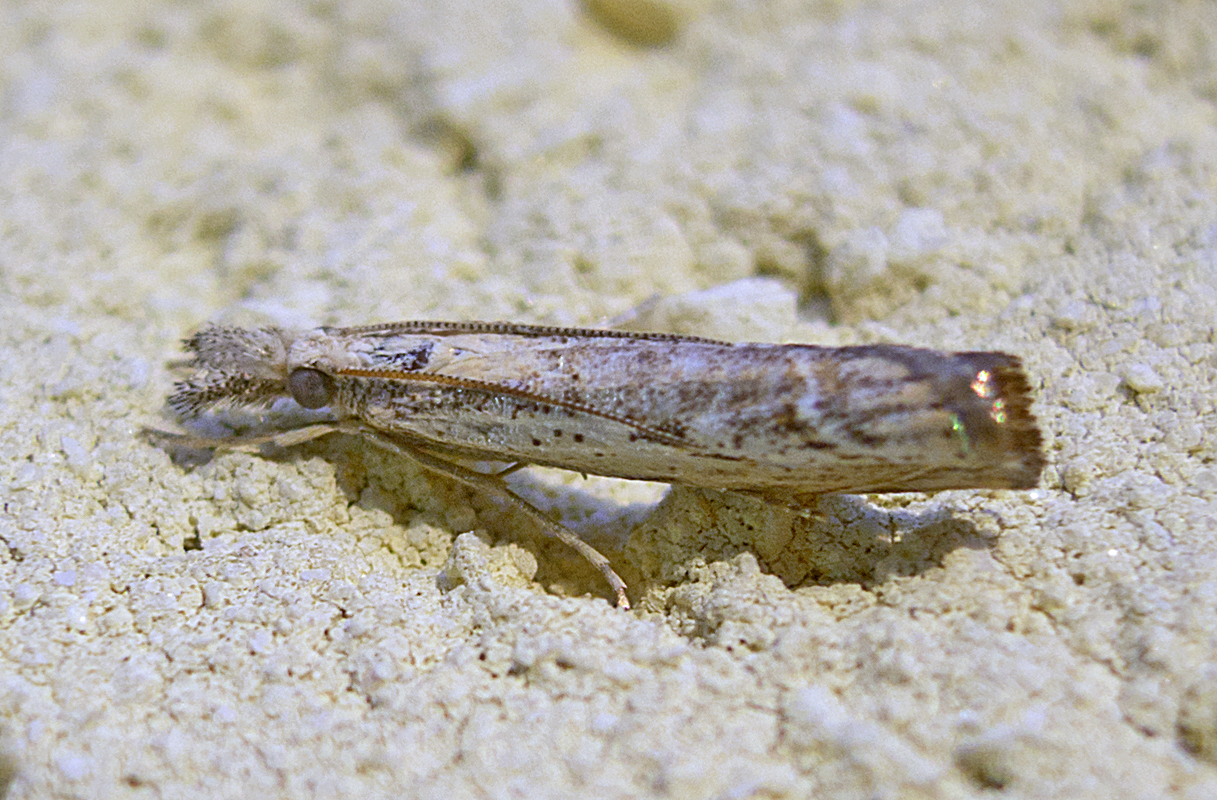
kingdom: Animalia
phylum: Arthropoda
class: Insecta
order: Lepidoptera
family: Crambidae
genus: Agriphila
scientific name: Agriphila tolli
